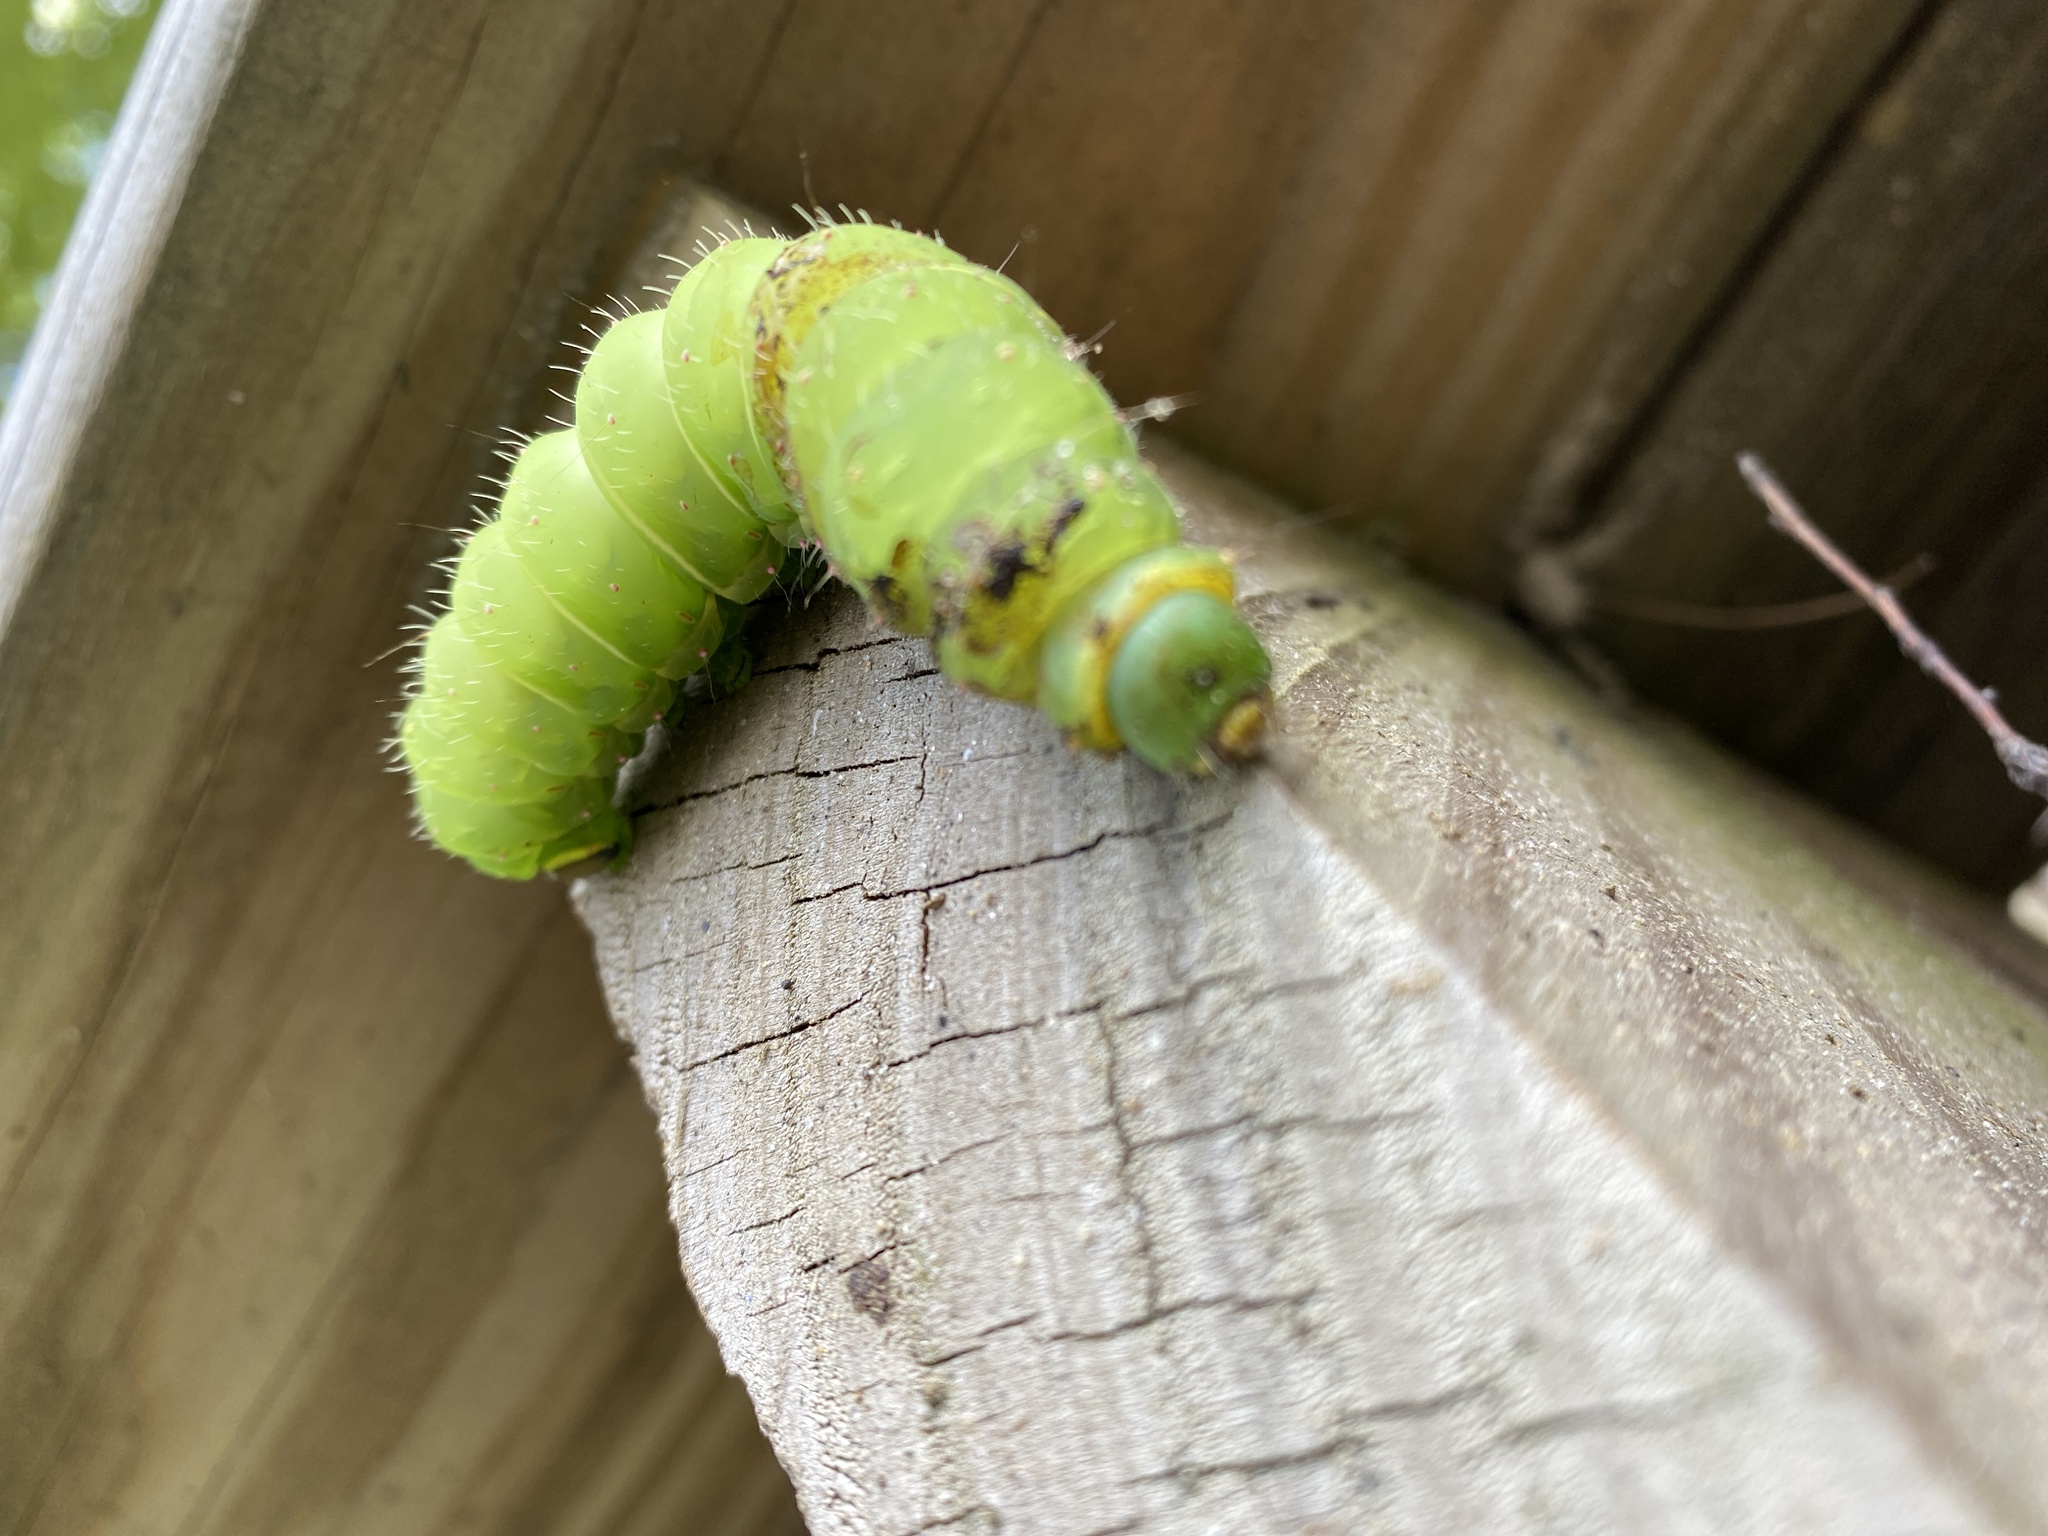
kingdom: Animalia
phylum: Arthropoda
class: Insecta
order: Lepidoptera
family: Saturniidae
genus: Actias
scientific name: Actias luna
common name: Luna moth
